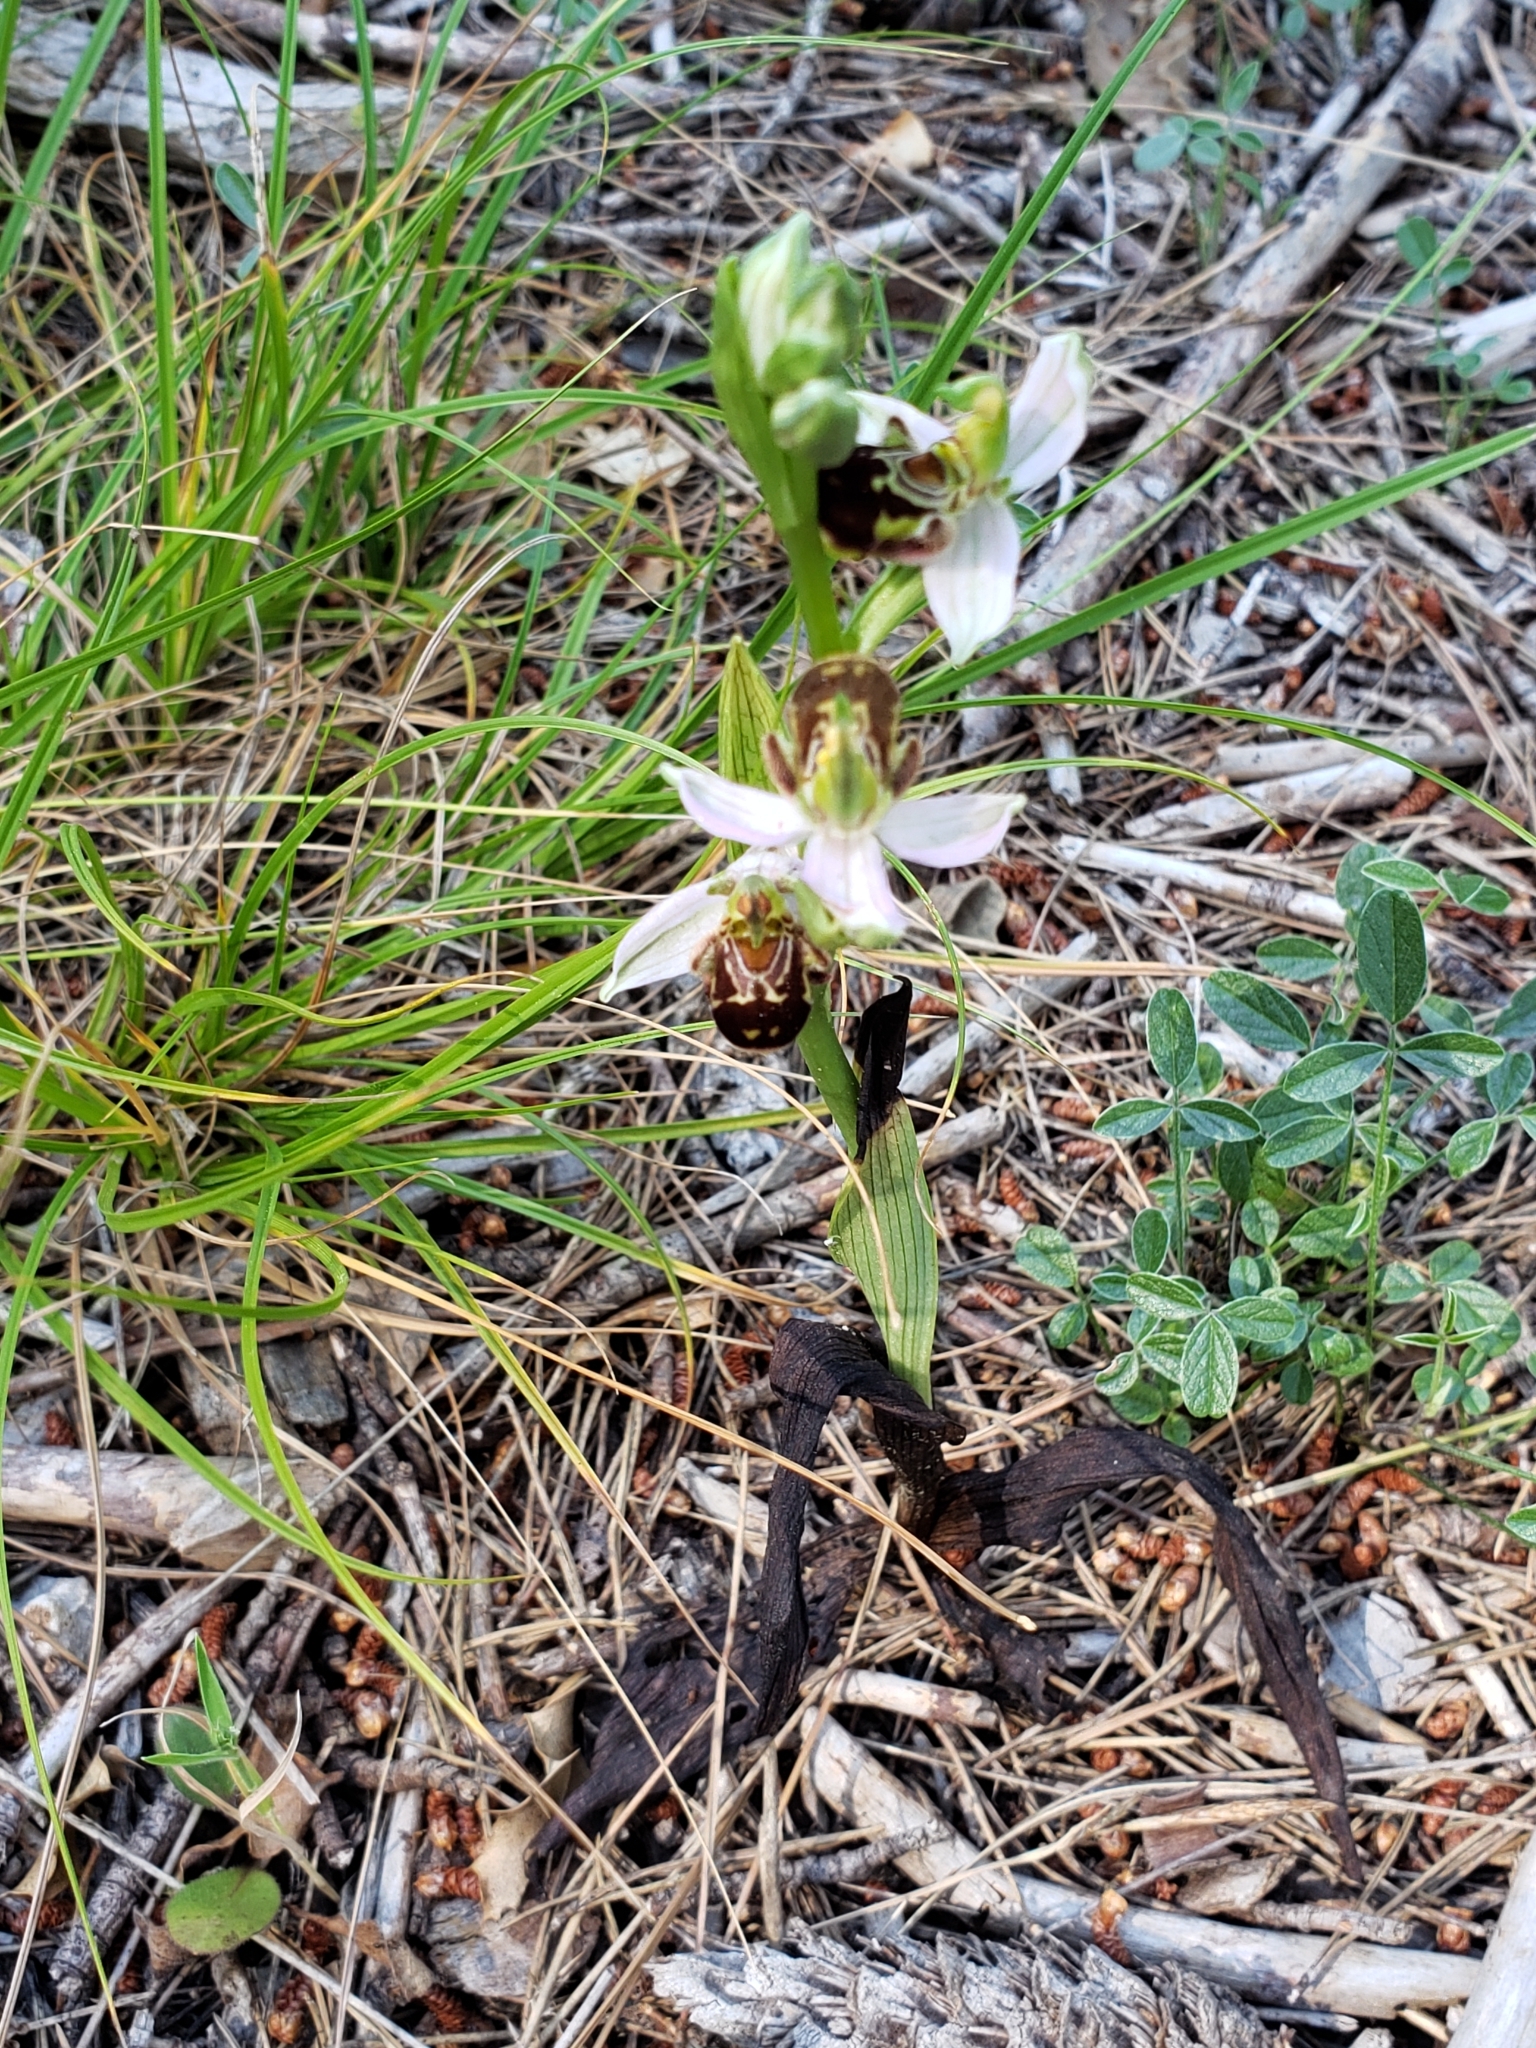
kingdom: Plantae
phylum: Tracheophyta
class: Liliopsida
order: Asparagales
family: Orchidaceae
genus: Ophrys
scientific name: Ophrys apifera
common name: Bee orchid
